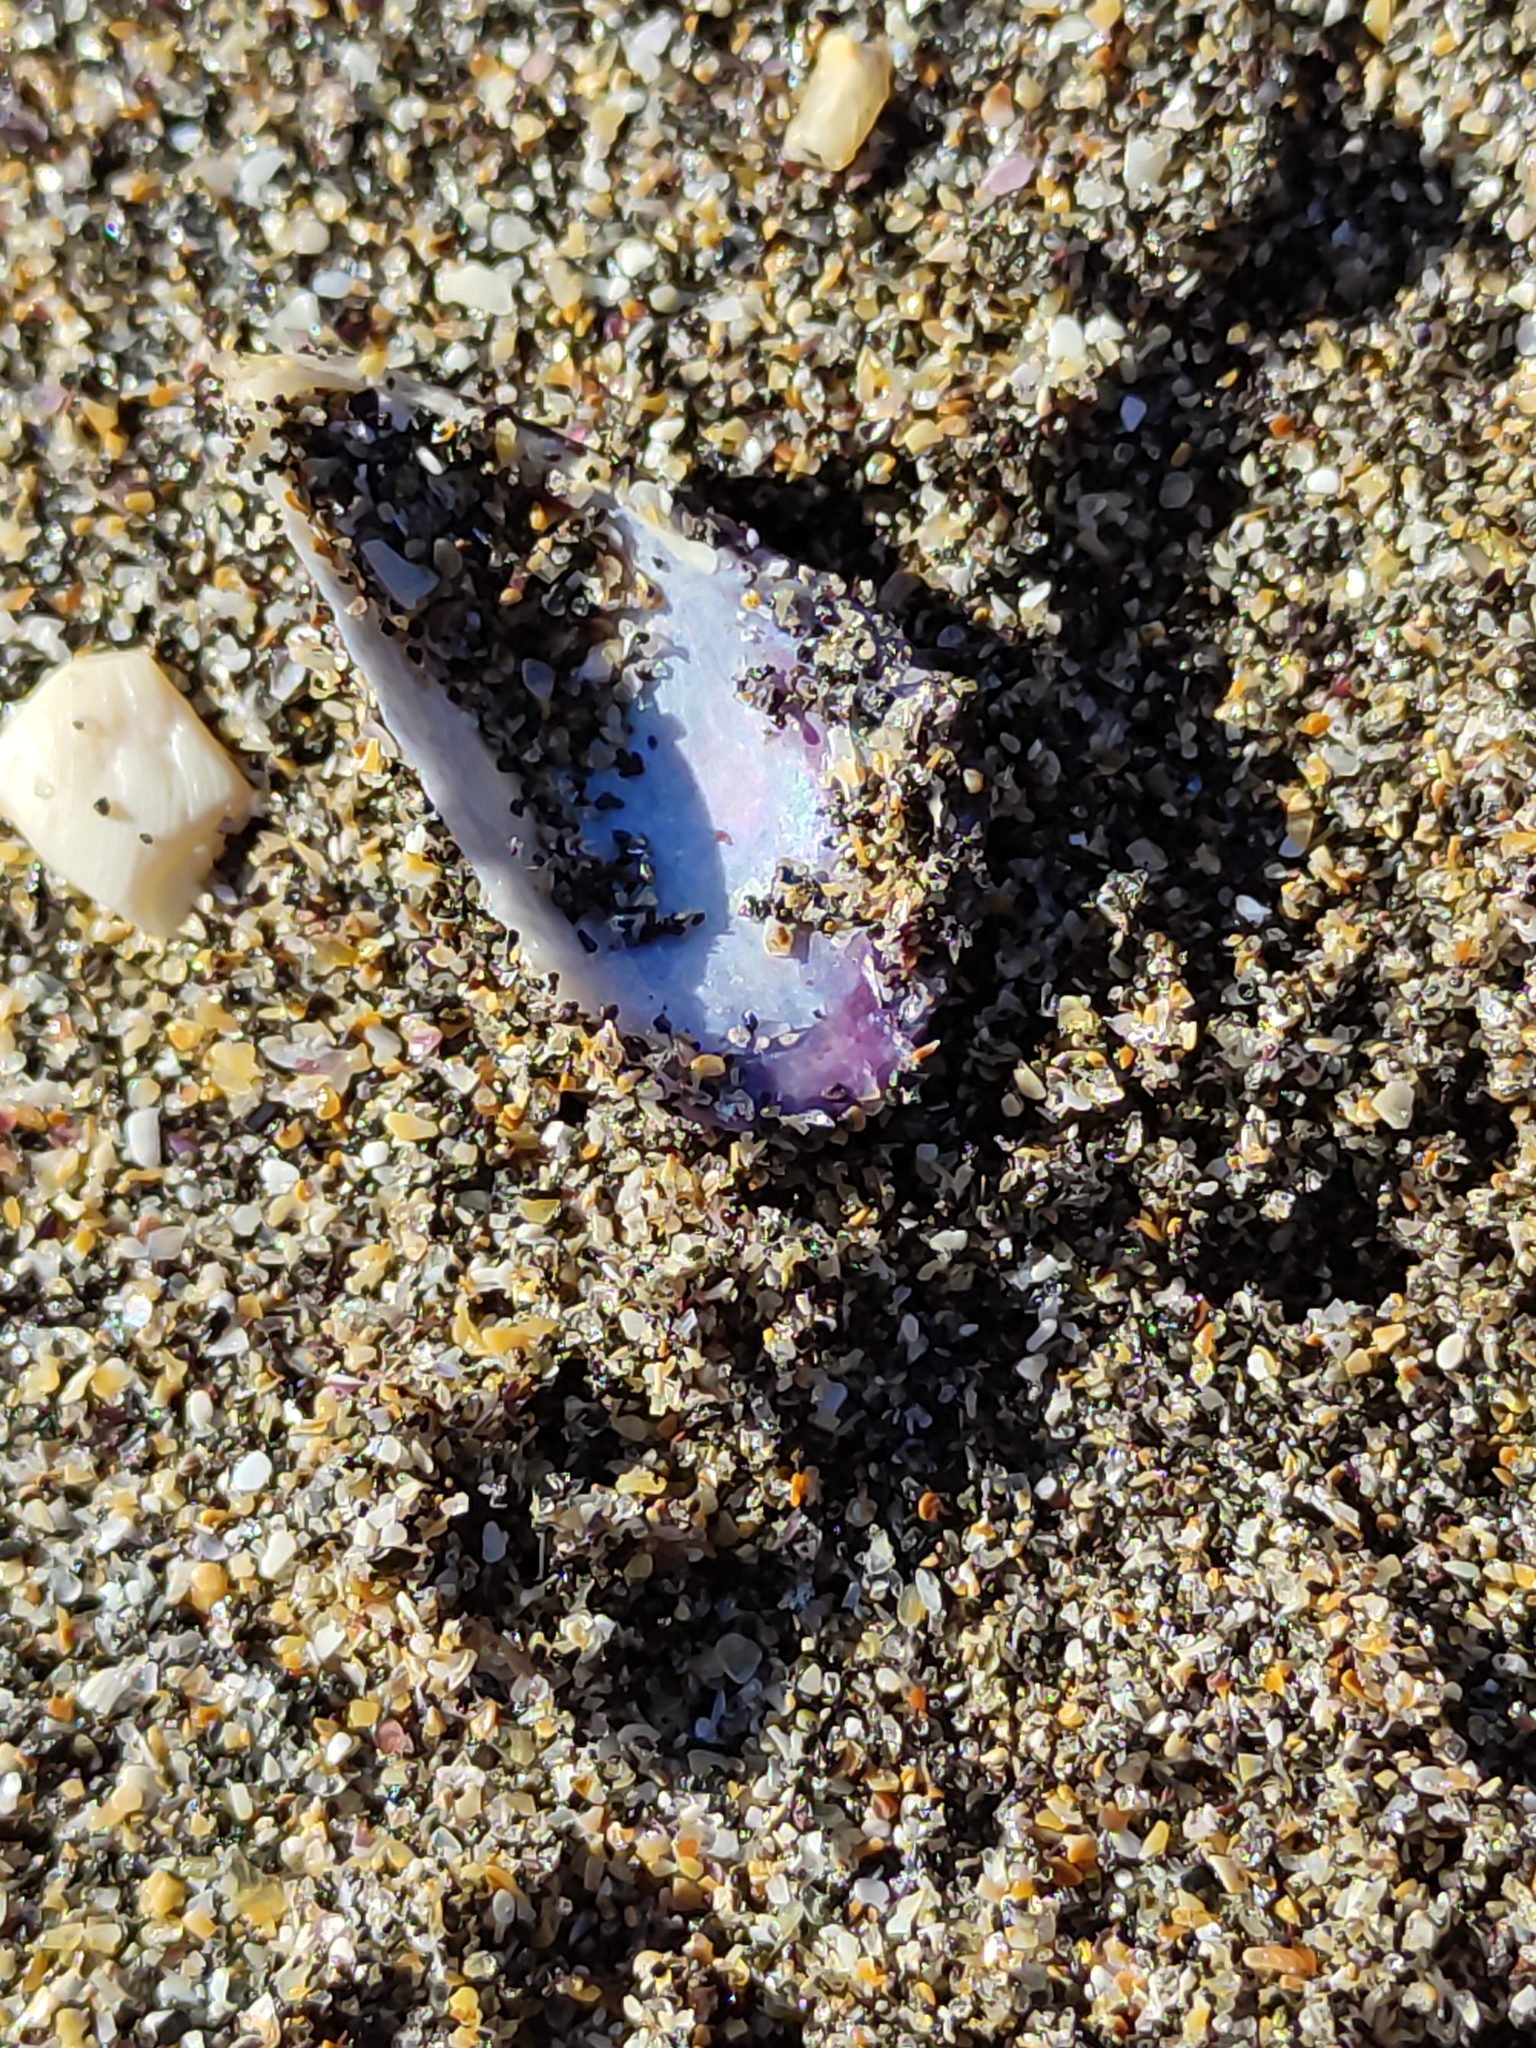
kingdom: Animalia
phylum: Mollusca
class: Bivalvia
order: Mytilida
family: Mytilidae
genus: Aulacomya
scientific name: Aulacomya maoriana
